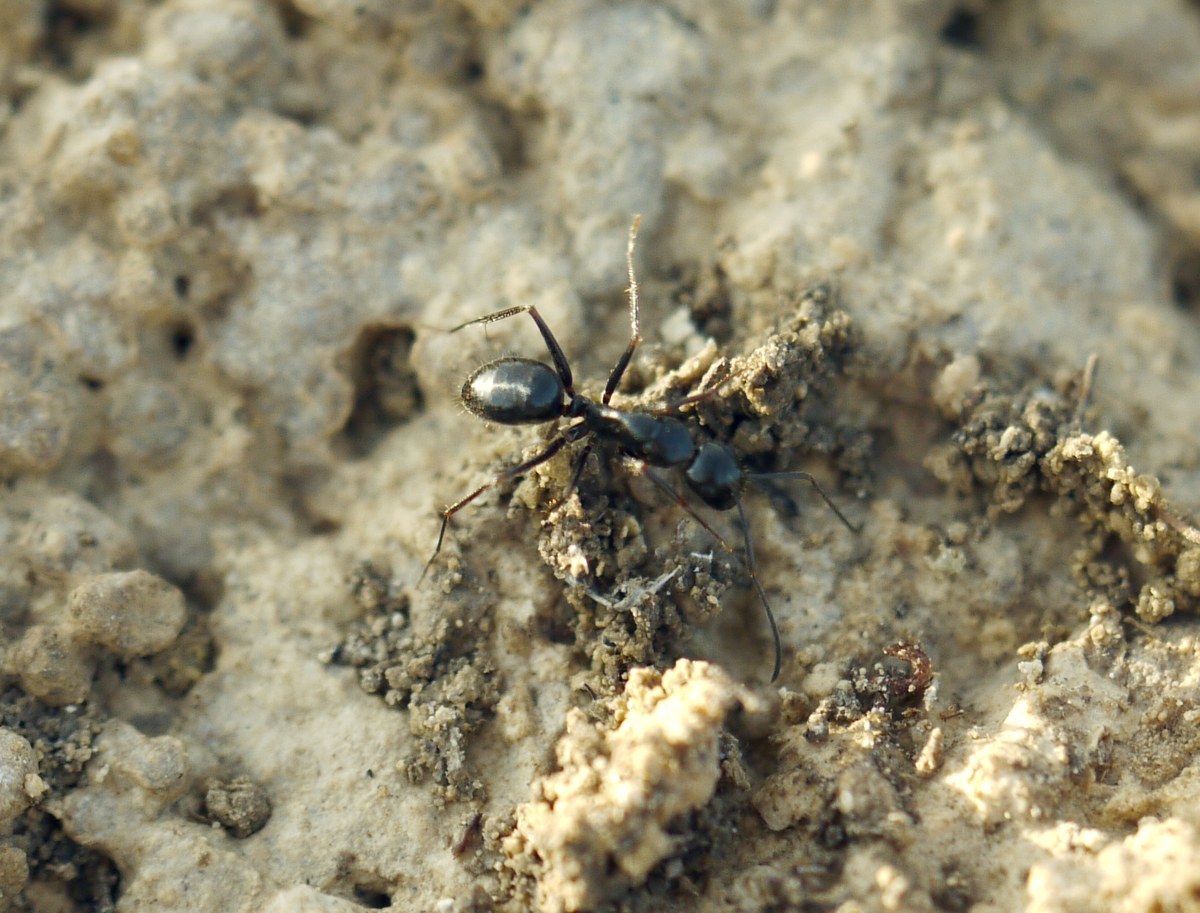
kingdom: Animalia
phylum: Arthropoda
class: Insecta
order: Hymenoptera
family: Formicidae
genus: Camponotus
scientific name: Camponotus aethiops
